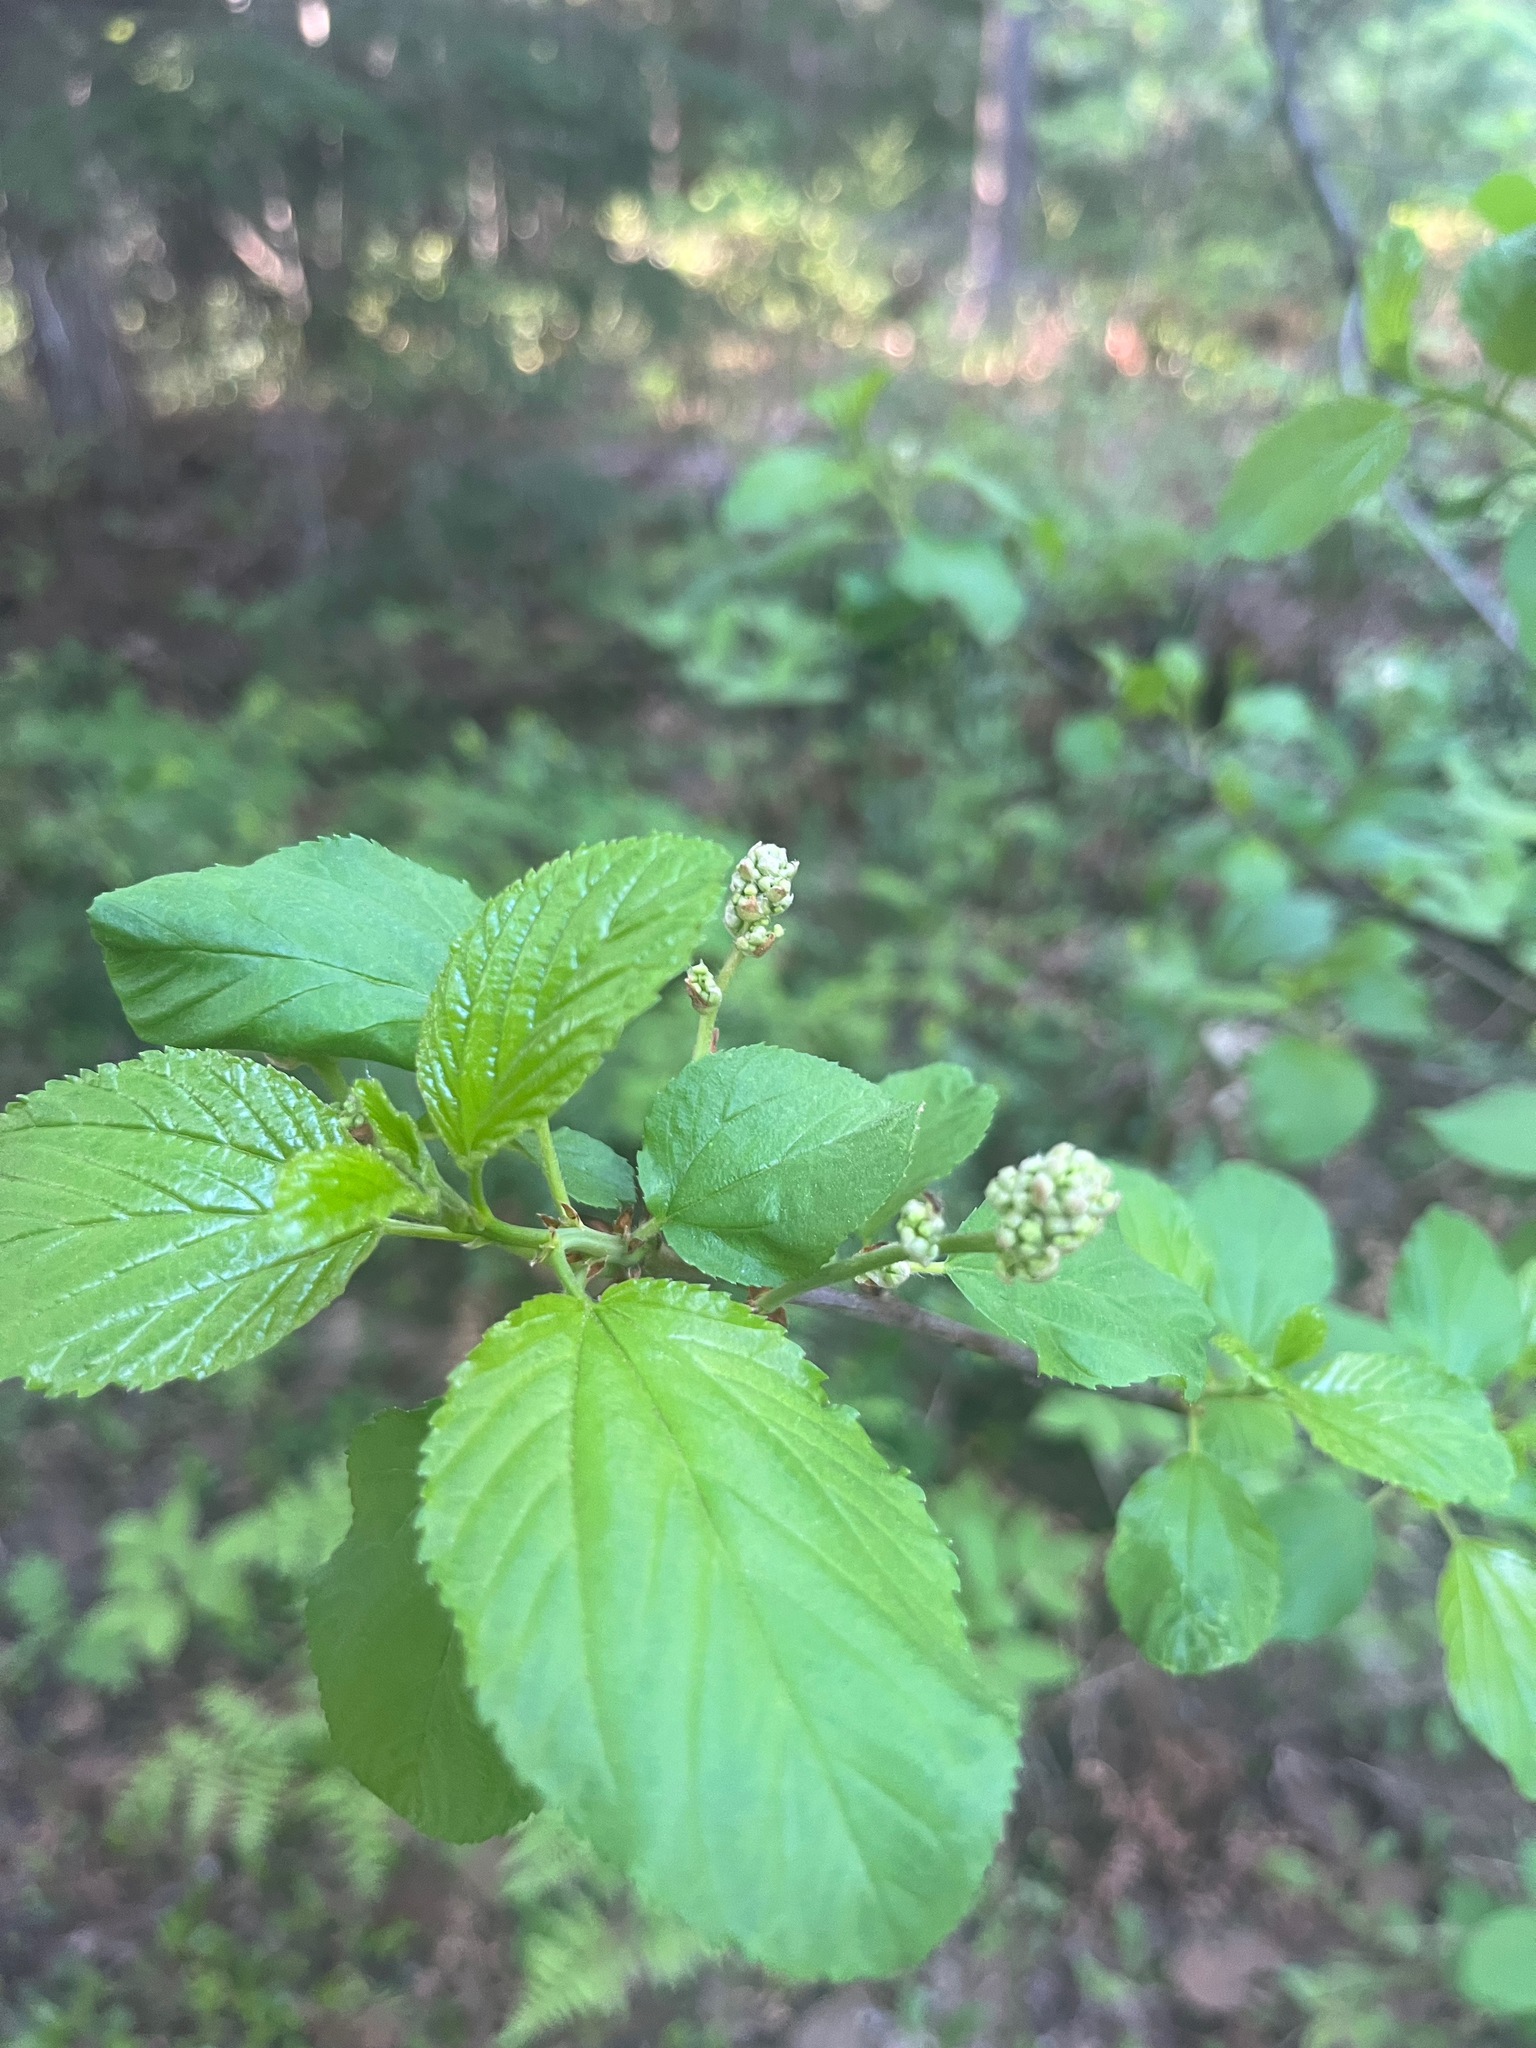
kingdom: Plantae
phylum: Tracheophyta
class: Magnoliopsida
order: Rosales
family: Rhamnaceae
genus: Ceanothus
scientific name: Ceanothus sanguineus
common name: Teatree
